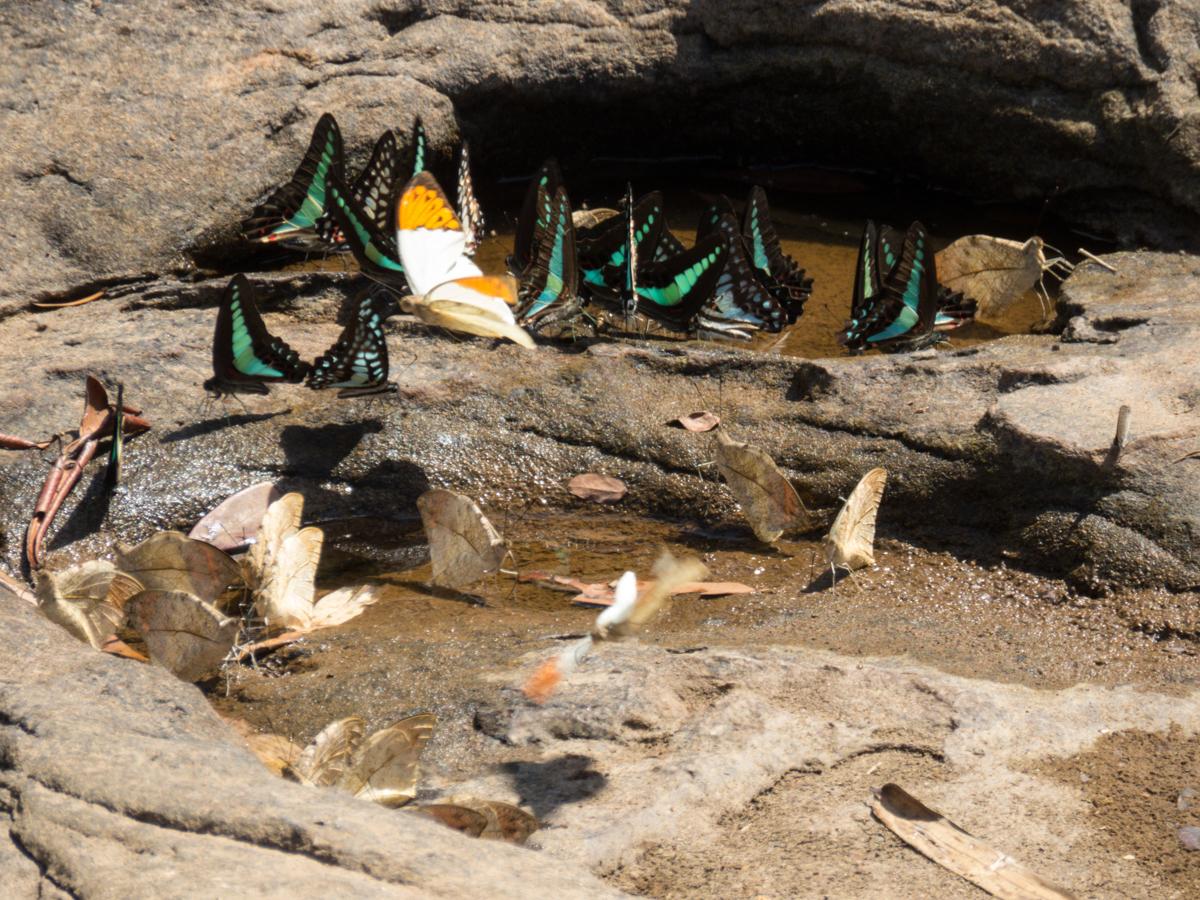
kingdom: Fungi
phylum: Ascomycota
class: Sordariomycetes
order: Microascales
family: Microascaceae
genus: Graphium
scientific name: Graphium sarpedon
